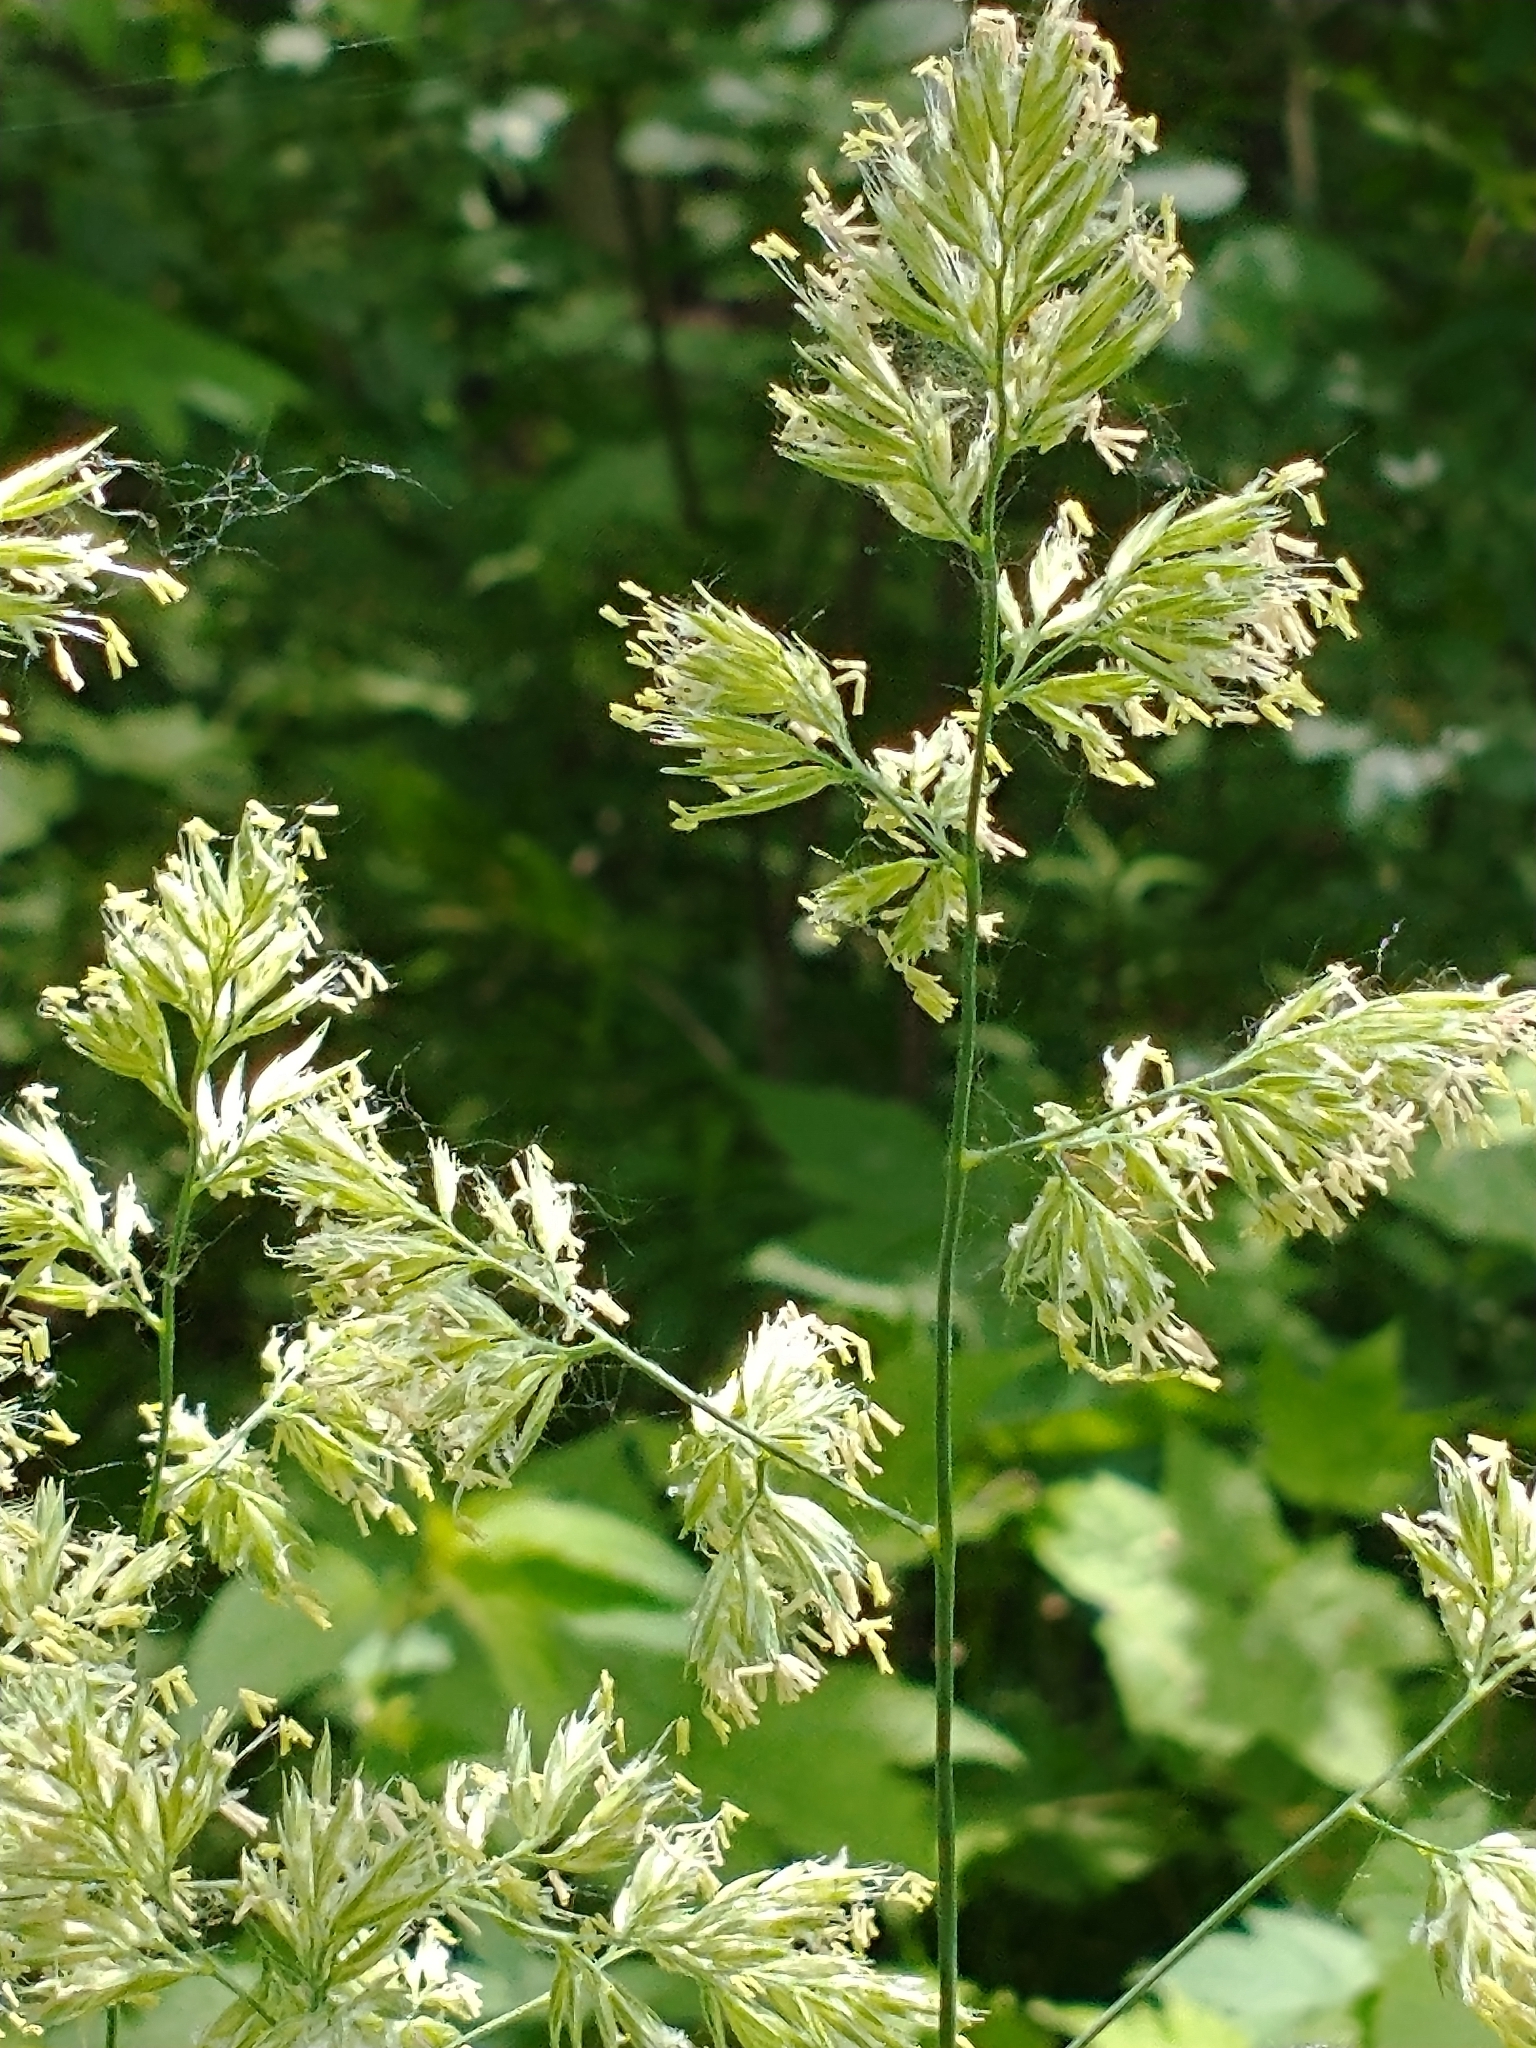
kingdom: Plantae
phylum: Tracheophyta
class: Liliopsida
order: Poales
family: Poaceae
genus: Dactylis
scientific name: Dactylis glomerata
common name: Orchardgrass
